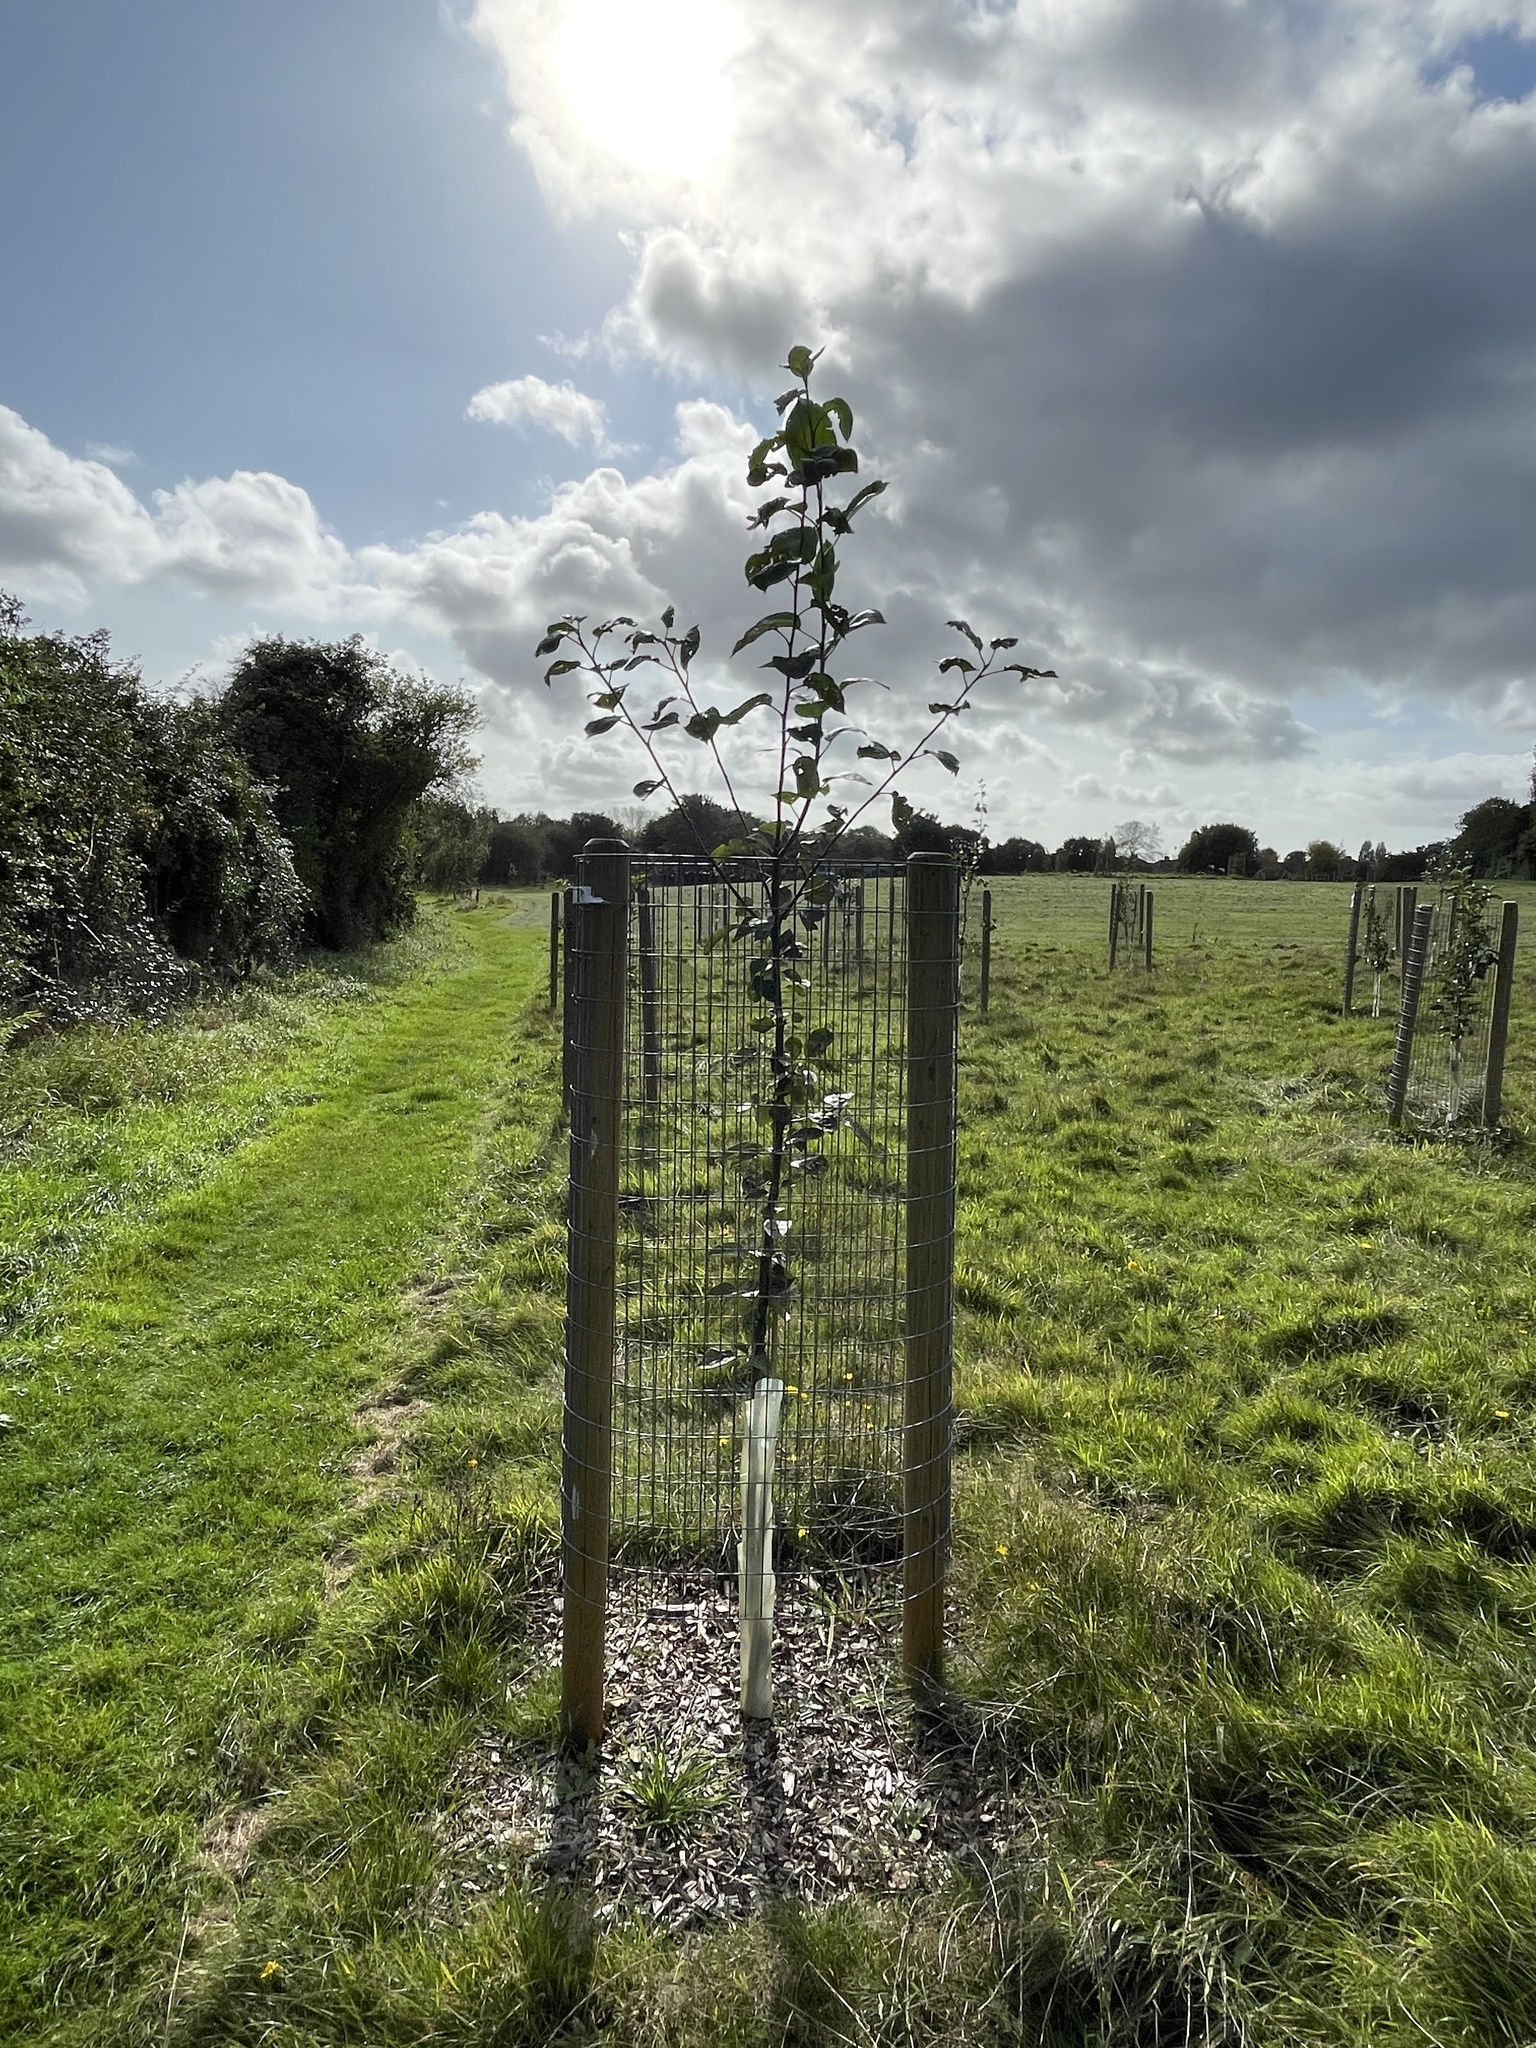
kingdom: Plantae
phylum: Tracheophyta
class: Magnoliopsida
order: Rosales
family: Rosaceae
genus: Malus
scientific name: Malus domestica
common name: Apple
